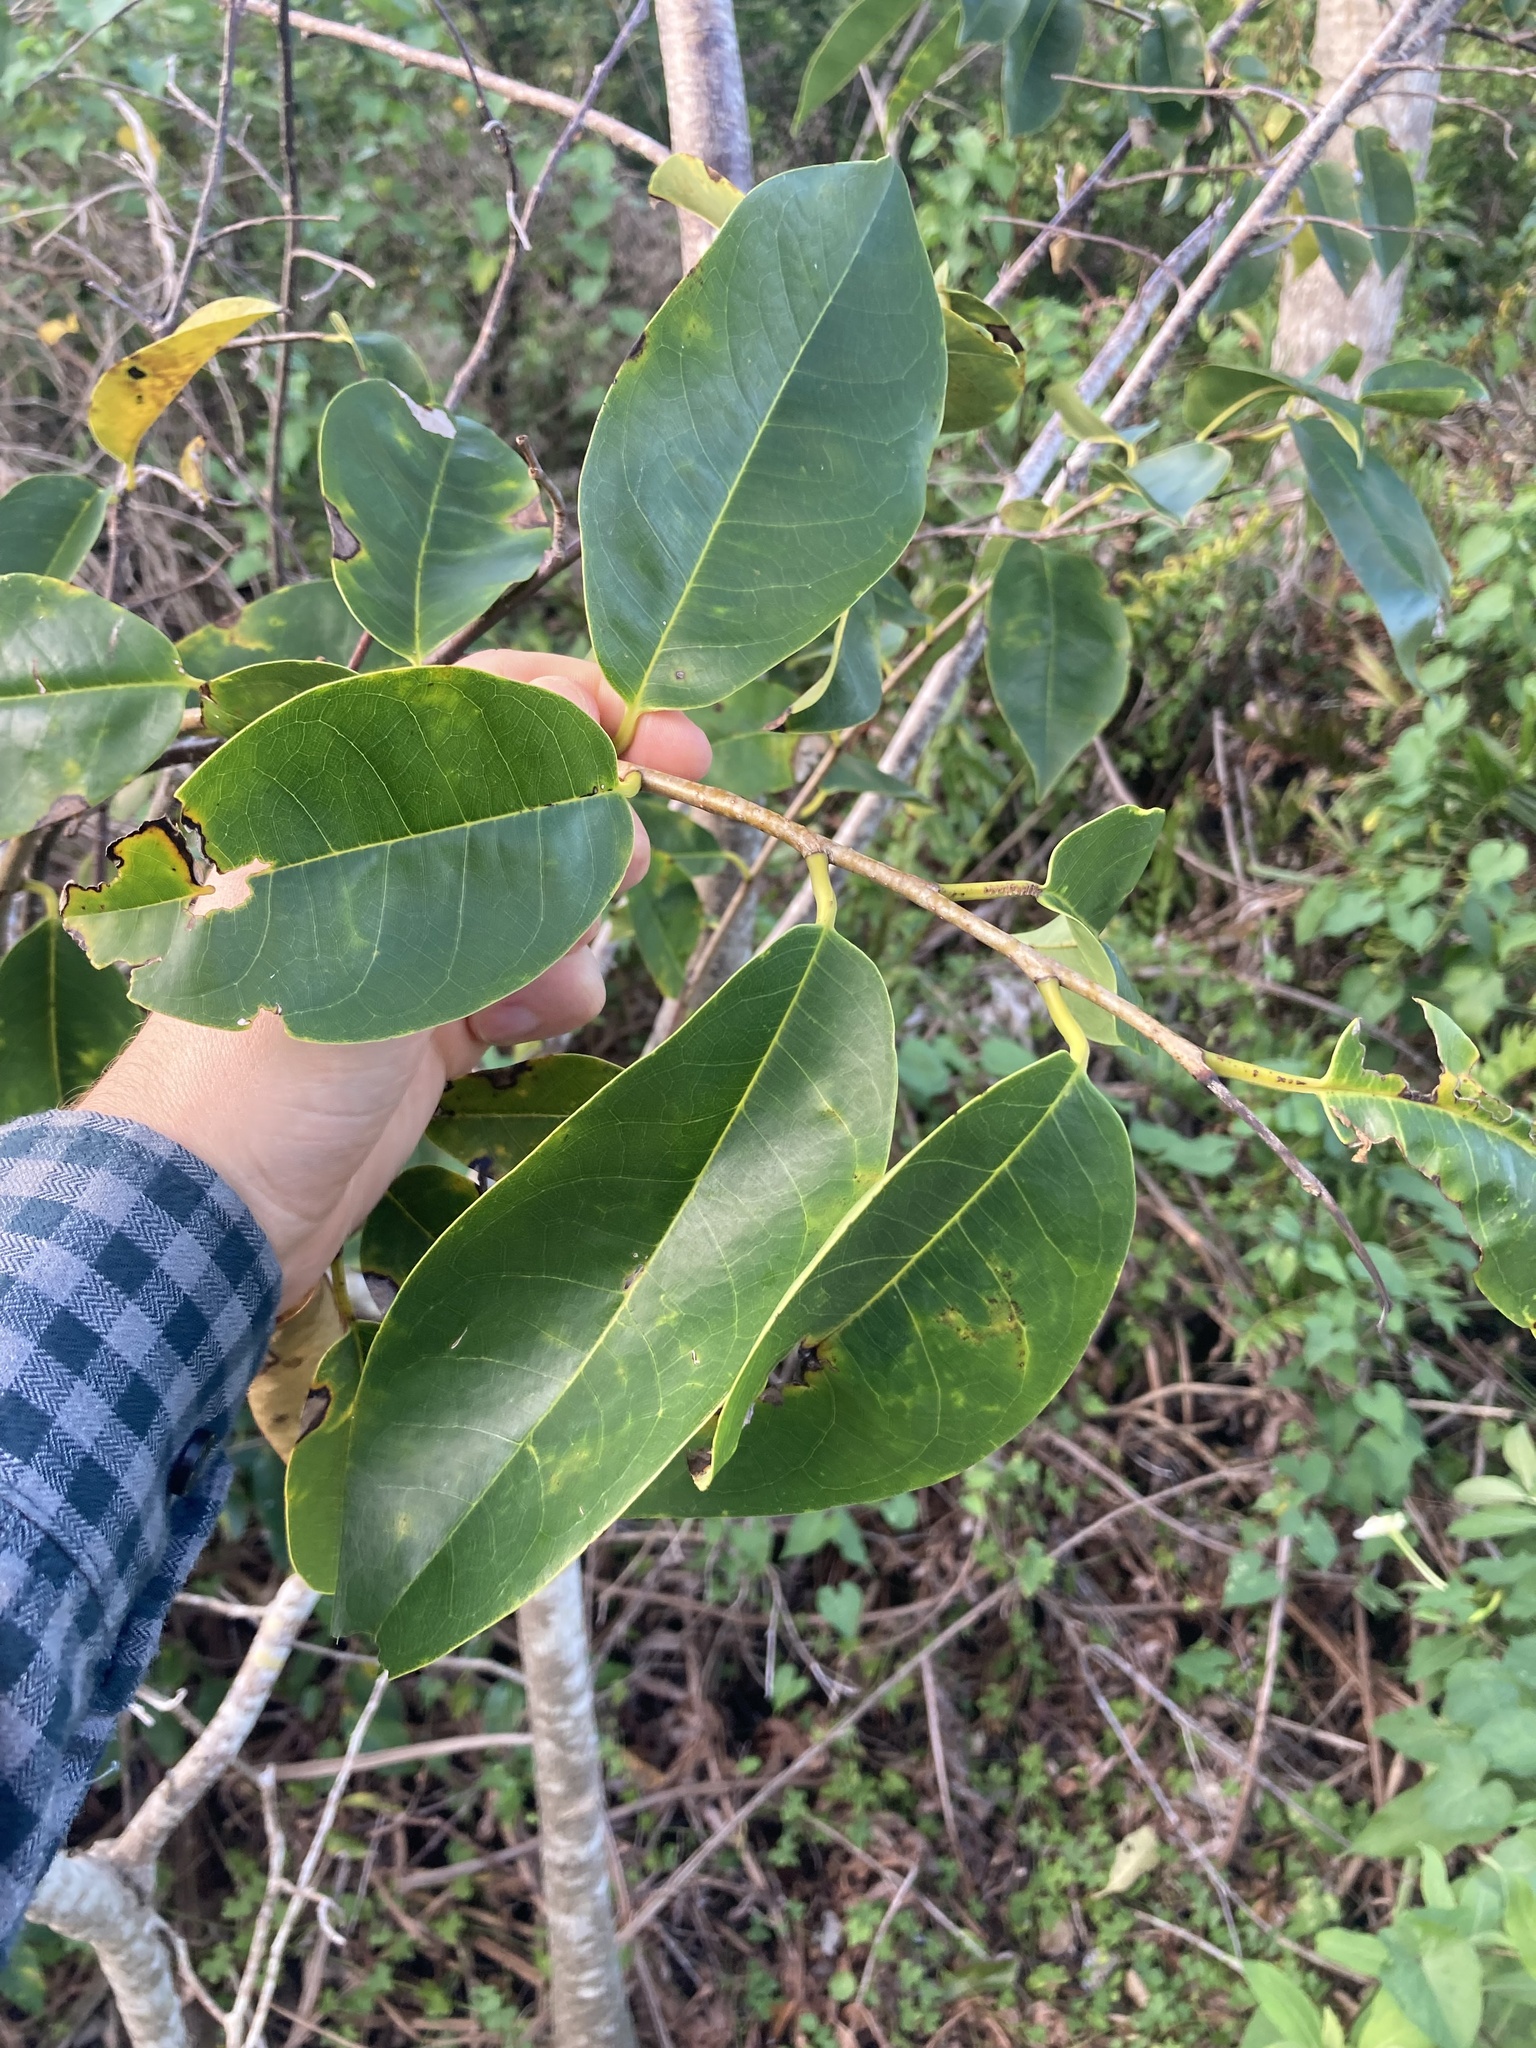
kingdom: Plantae
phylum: Tracheophyta
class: Magnoliopsida
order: Magnoliales
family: Annonaceae
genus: Annona
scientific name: Annona glabra
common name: Monkey apple
